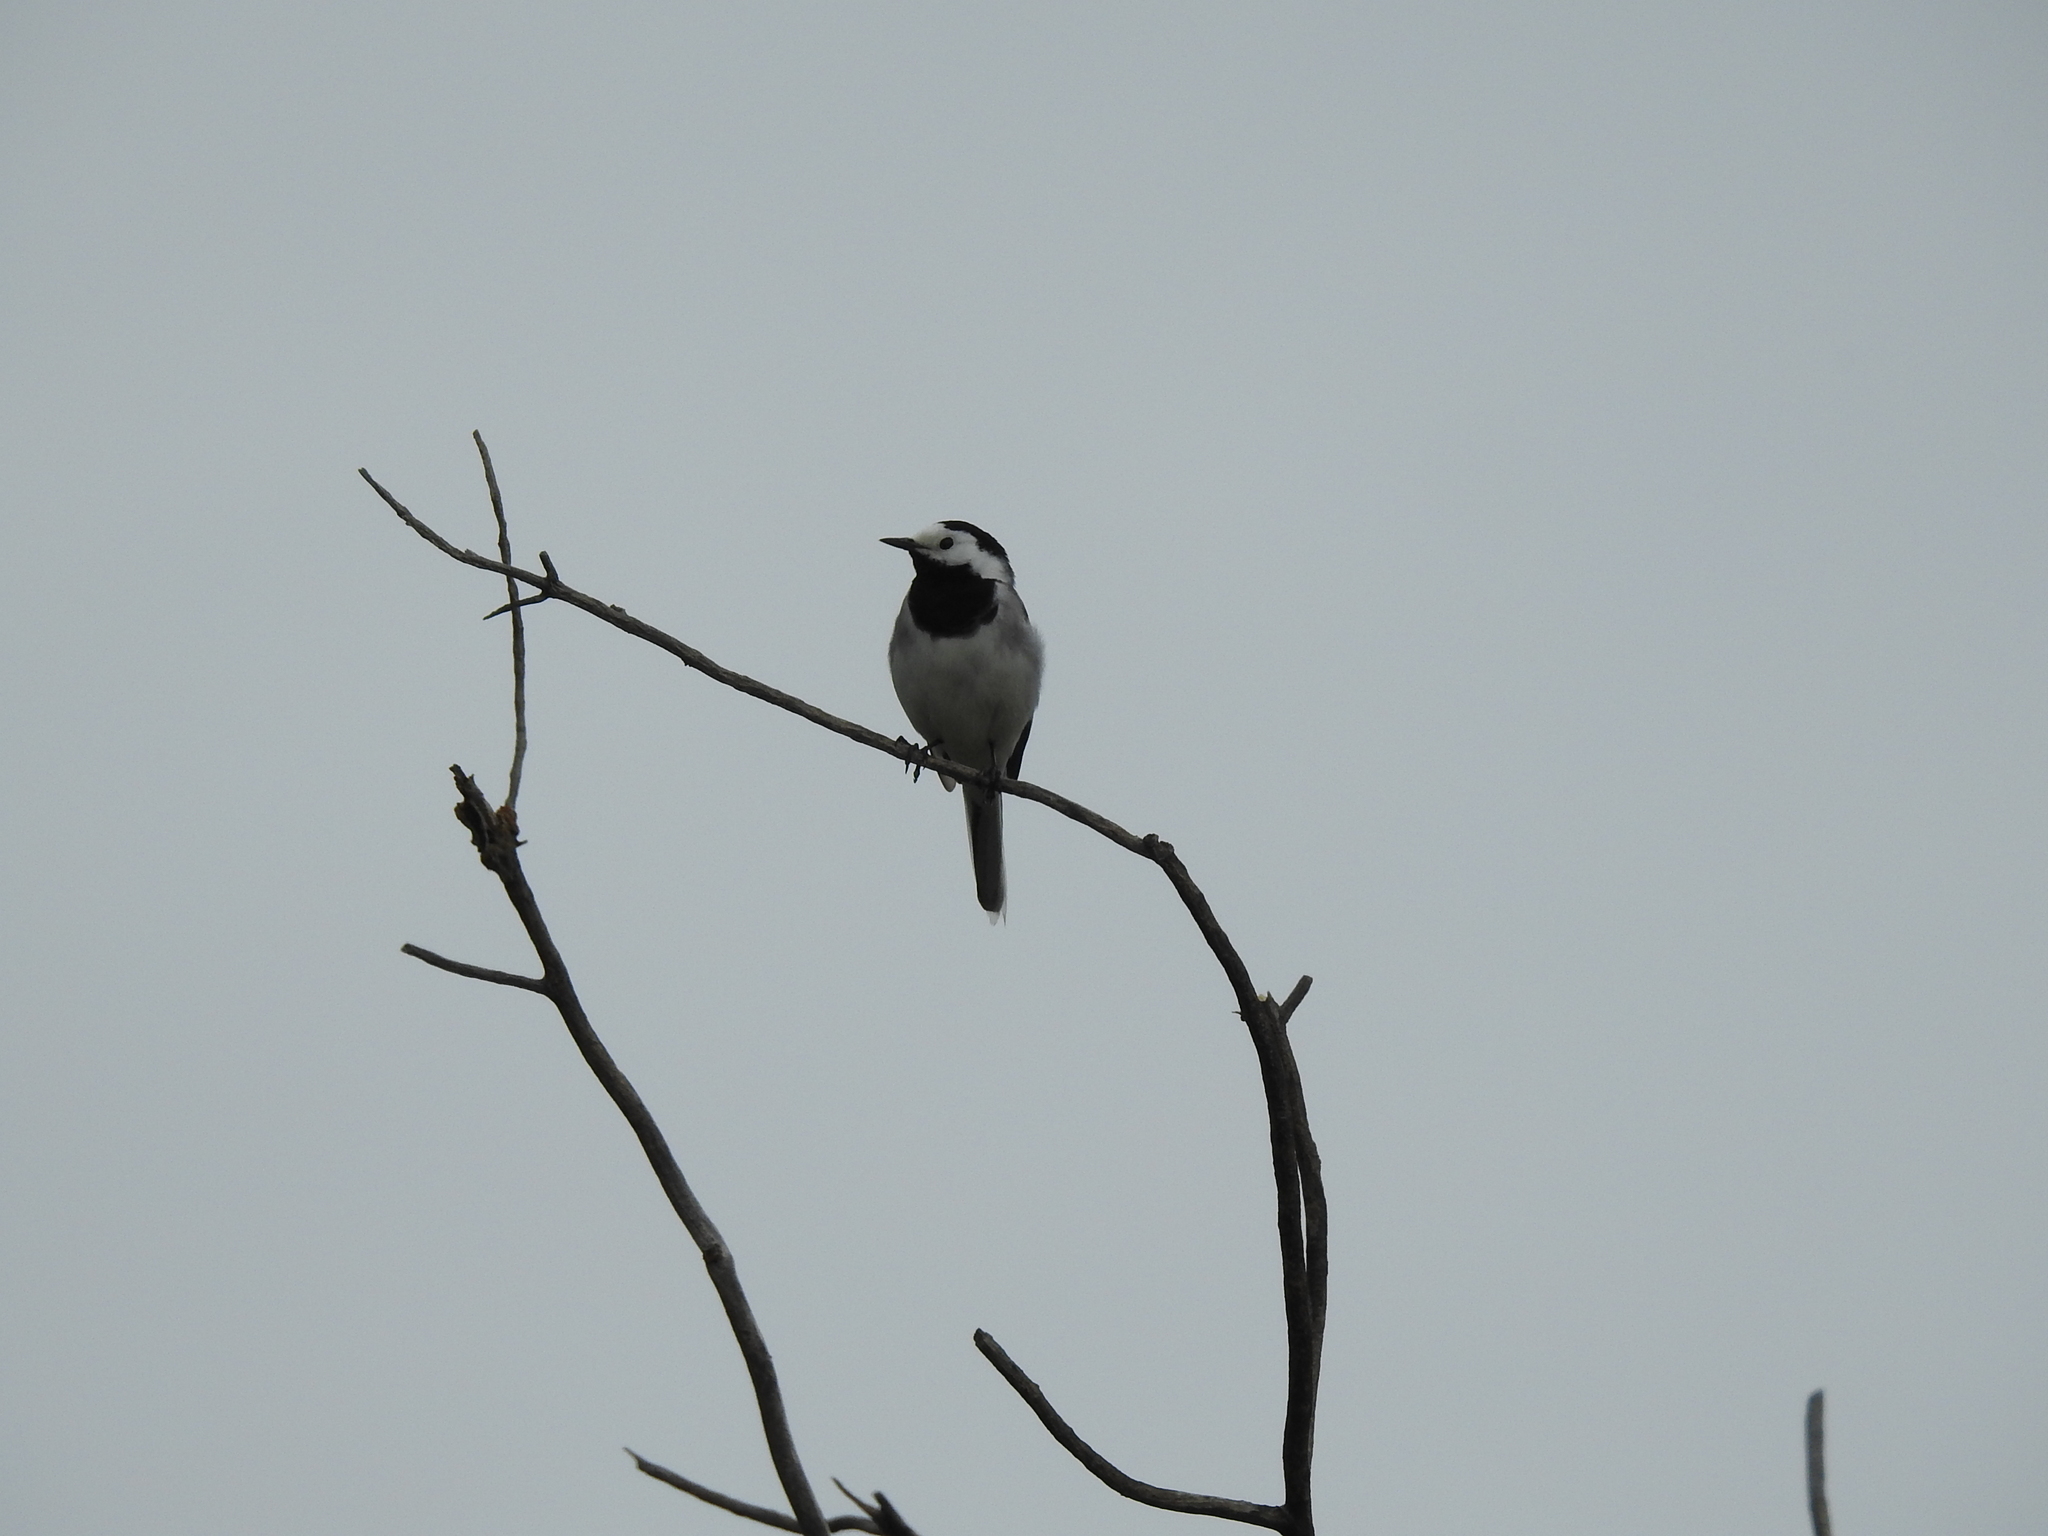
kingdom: Animalia
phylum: Chordata
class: Aves
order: Passeriformes
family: Motacillidae
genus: Motacilla
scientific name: Motacilla alba
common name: White wagtail
